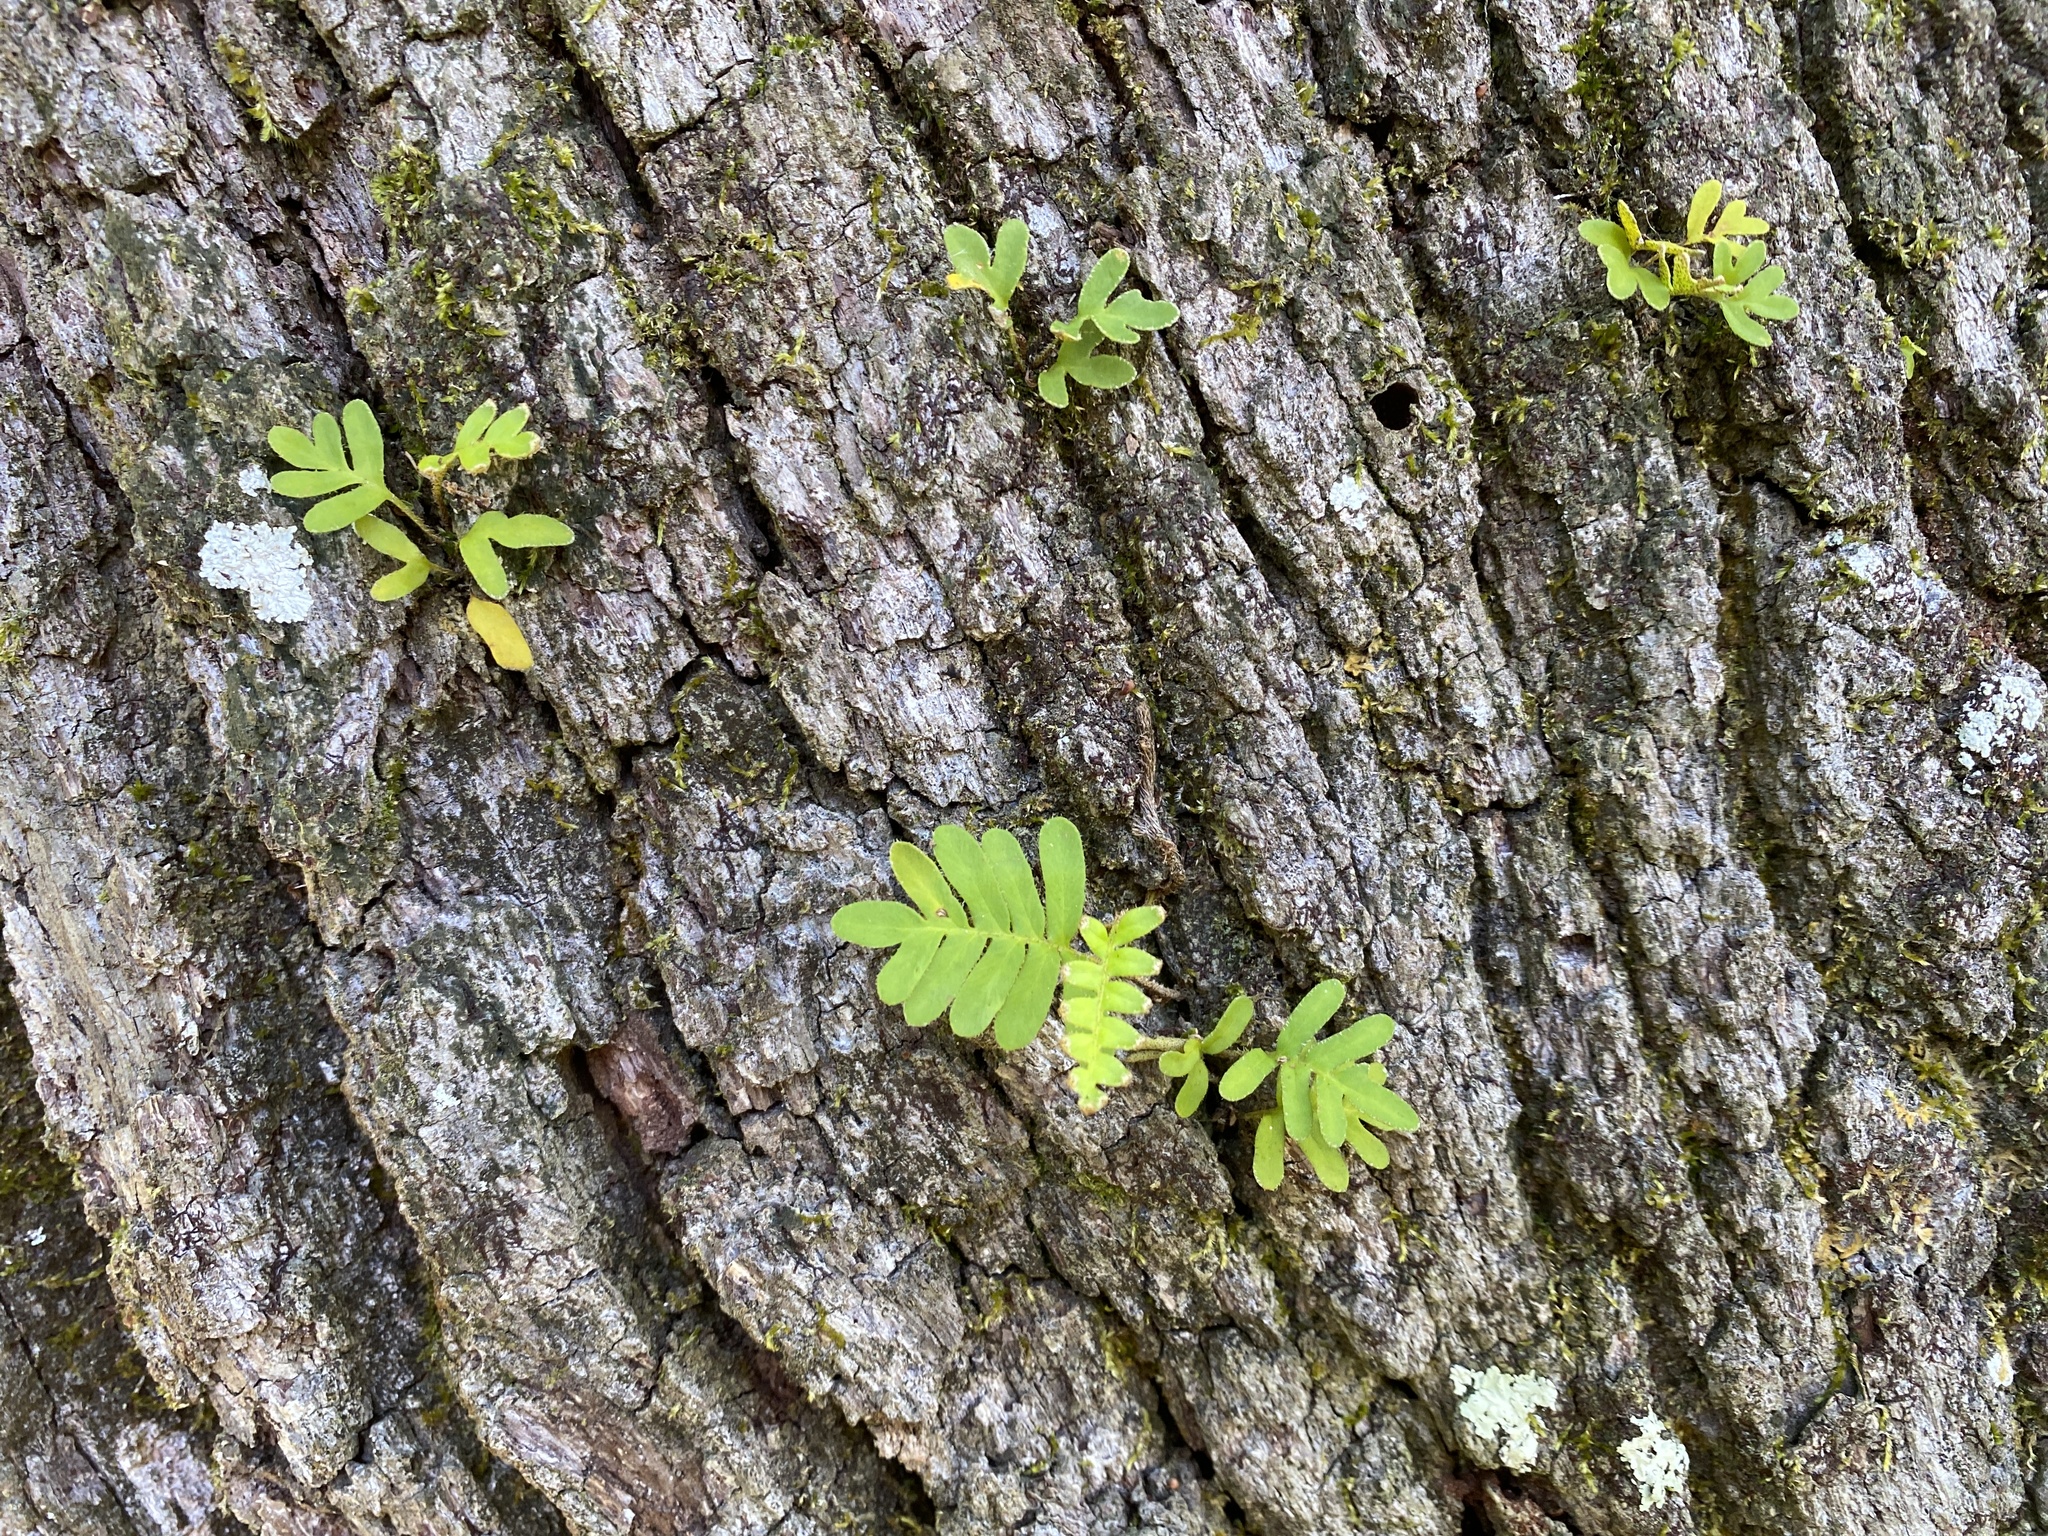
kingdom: Plantae
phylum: Tracheophyta
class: Polypodiopsida
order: Polypodiales
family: Polypodiaceae
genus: Pleopeltis
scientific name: Pleopeltis michauxiana
